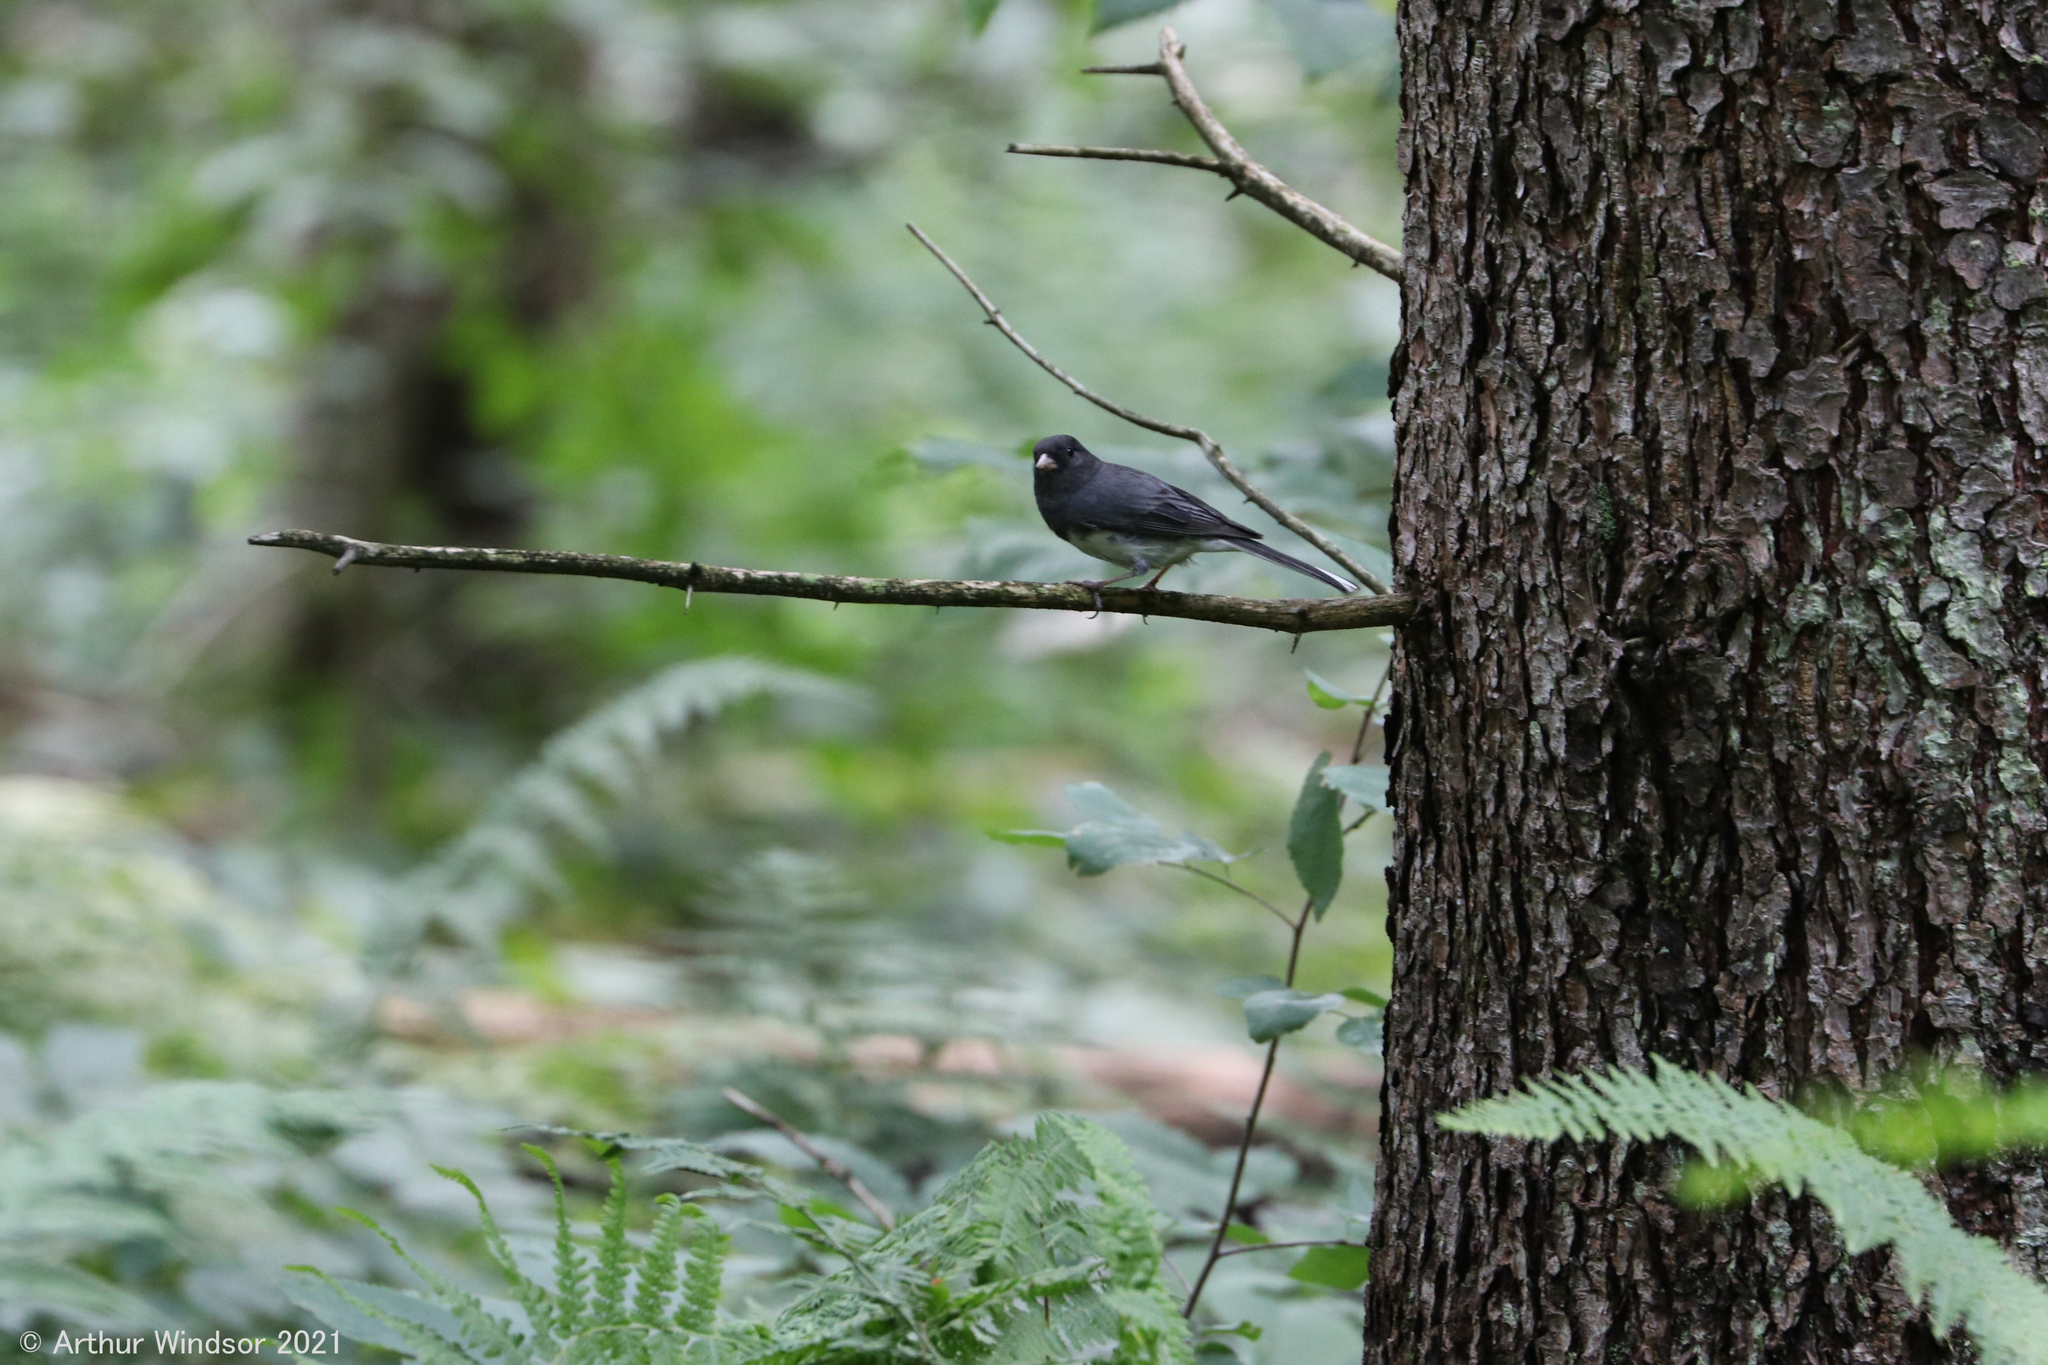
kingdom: Animalia
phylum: Chordata
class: Aves
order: Passeriformes
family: Passerellidae
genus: Junco
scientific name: Junco hyemalis
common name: Dark-eyed junco
